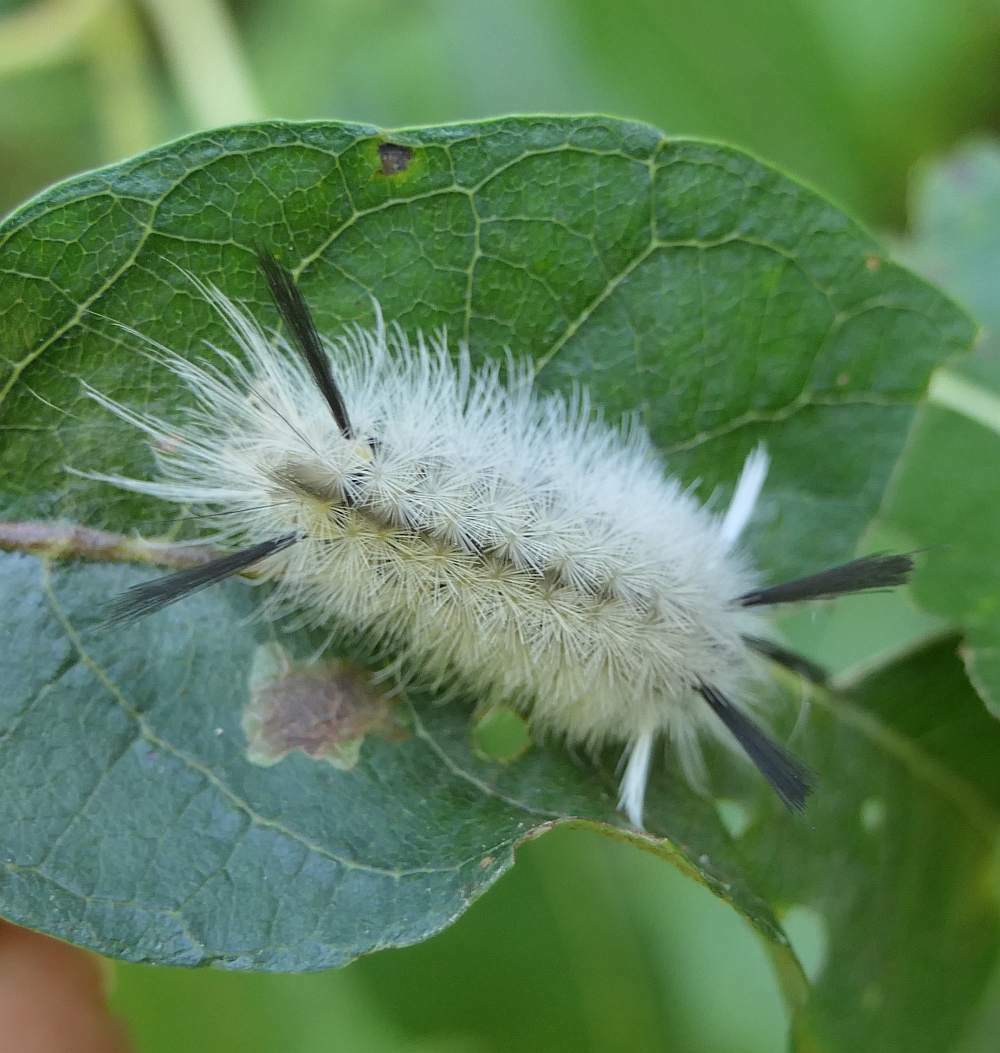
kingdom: Animalia
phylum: Arthropoda
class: Insecta
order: Lepidoptera
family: Erebidae
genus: Halysidota
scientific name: Halysidota tessellaris
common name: Banded tussock moth
